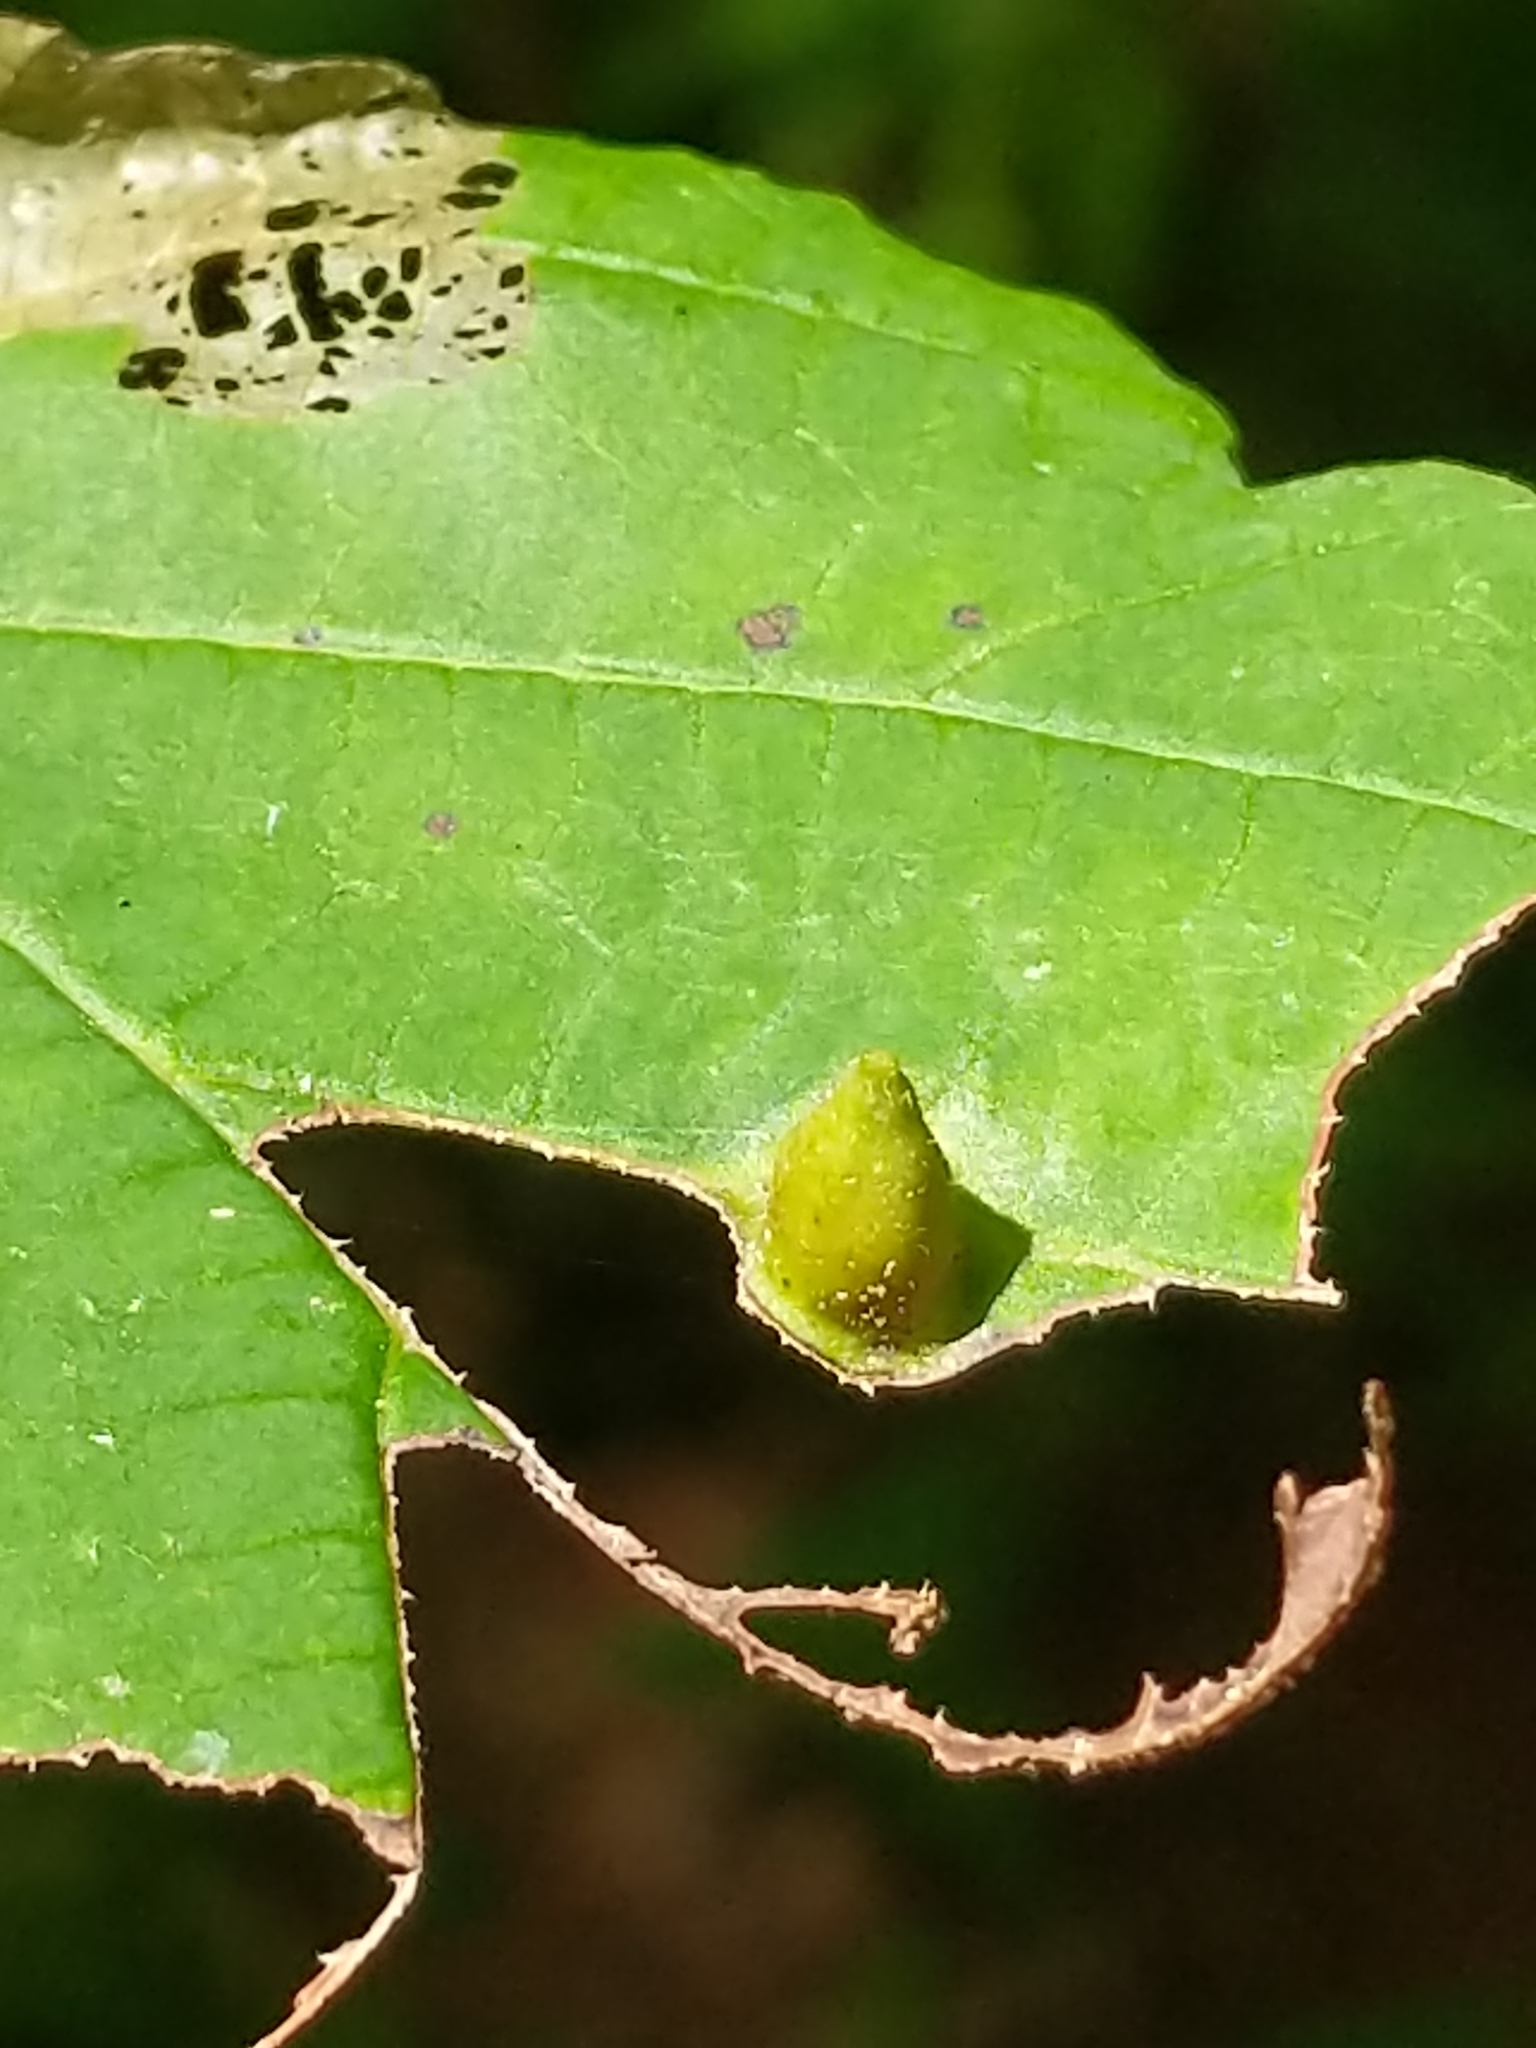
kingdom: Animalia
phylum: Arthropoda
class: Insecta
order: Hemiptera
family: Aphididae
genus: Hormaphis
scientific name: Hormaphis hamamelidis
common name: Witch-hazel cone gall aphid
